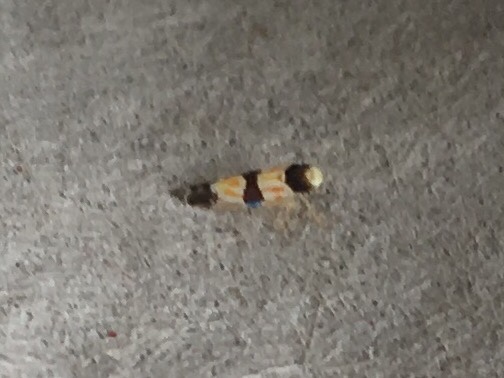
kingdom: Animalia
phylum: Arthropoda
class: Insecta
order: Hemiptera
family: Cicadellidae
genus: Erythroneura
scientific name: Erythroneura tricincta
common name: The threebanded grape leafhopper
